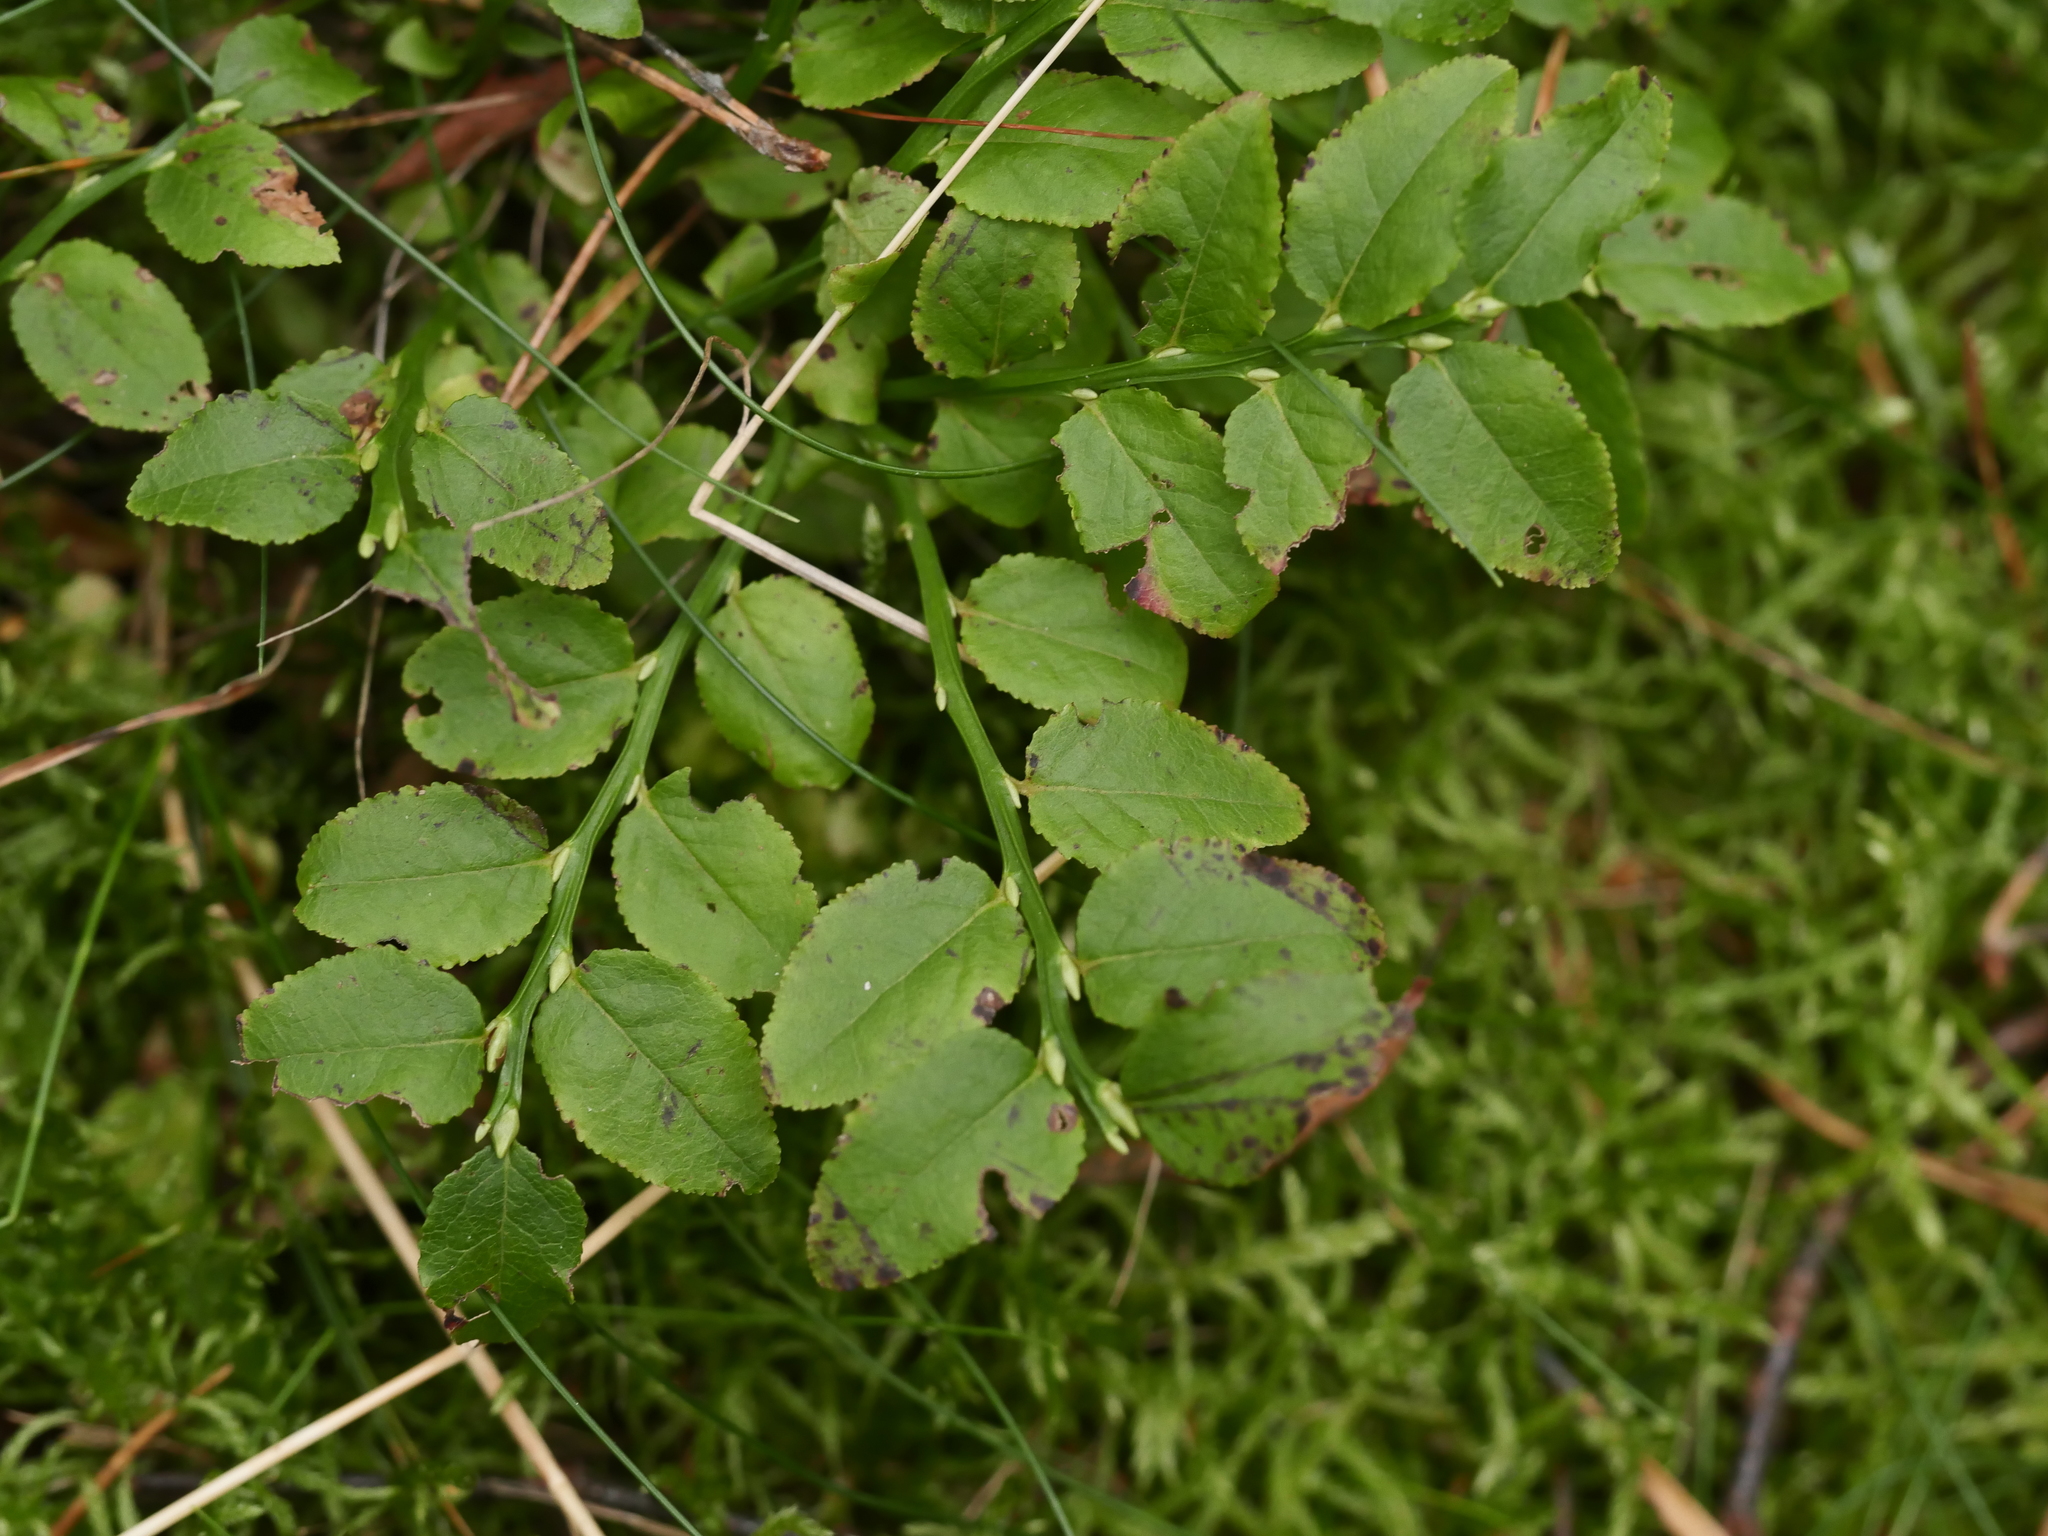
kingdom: Plantae
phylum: Tracheophyta
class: Magnoliopsida
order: Ericales
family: Ericaceae
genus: Vaccinium
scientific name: Vaccinium myrtillus
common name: Bilberry
